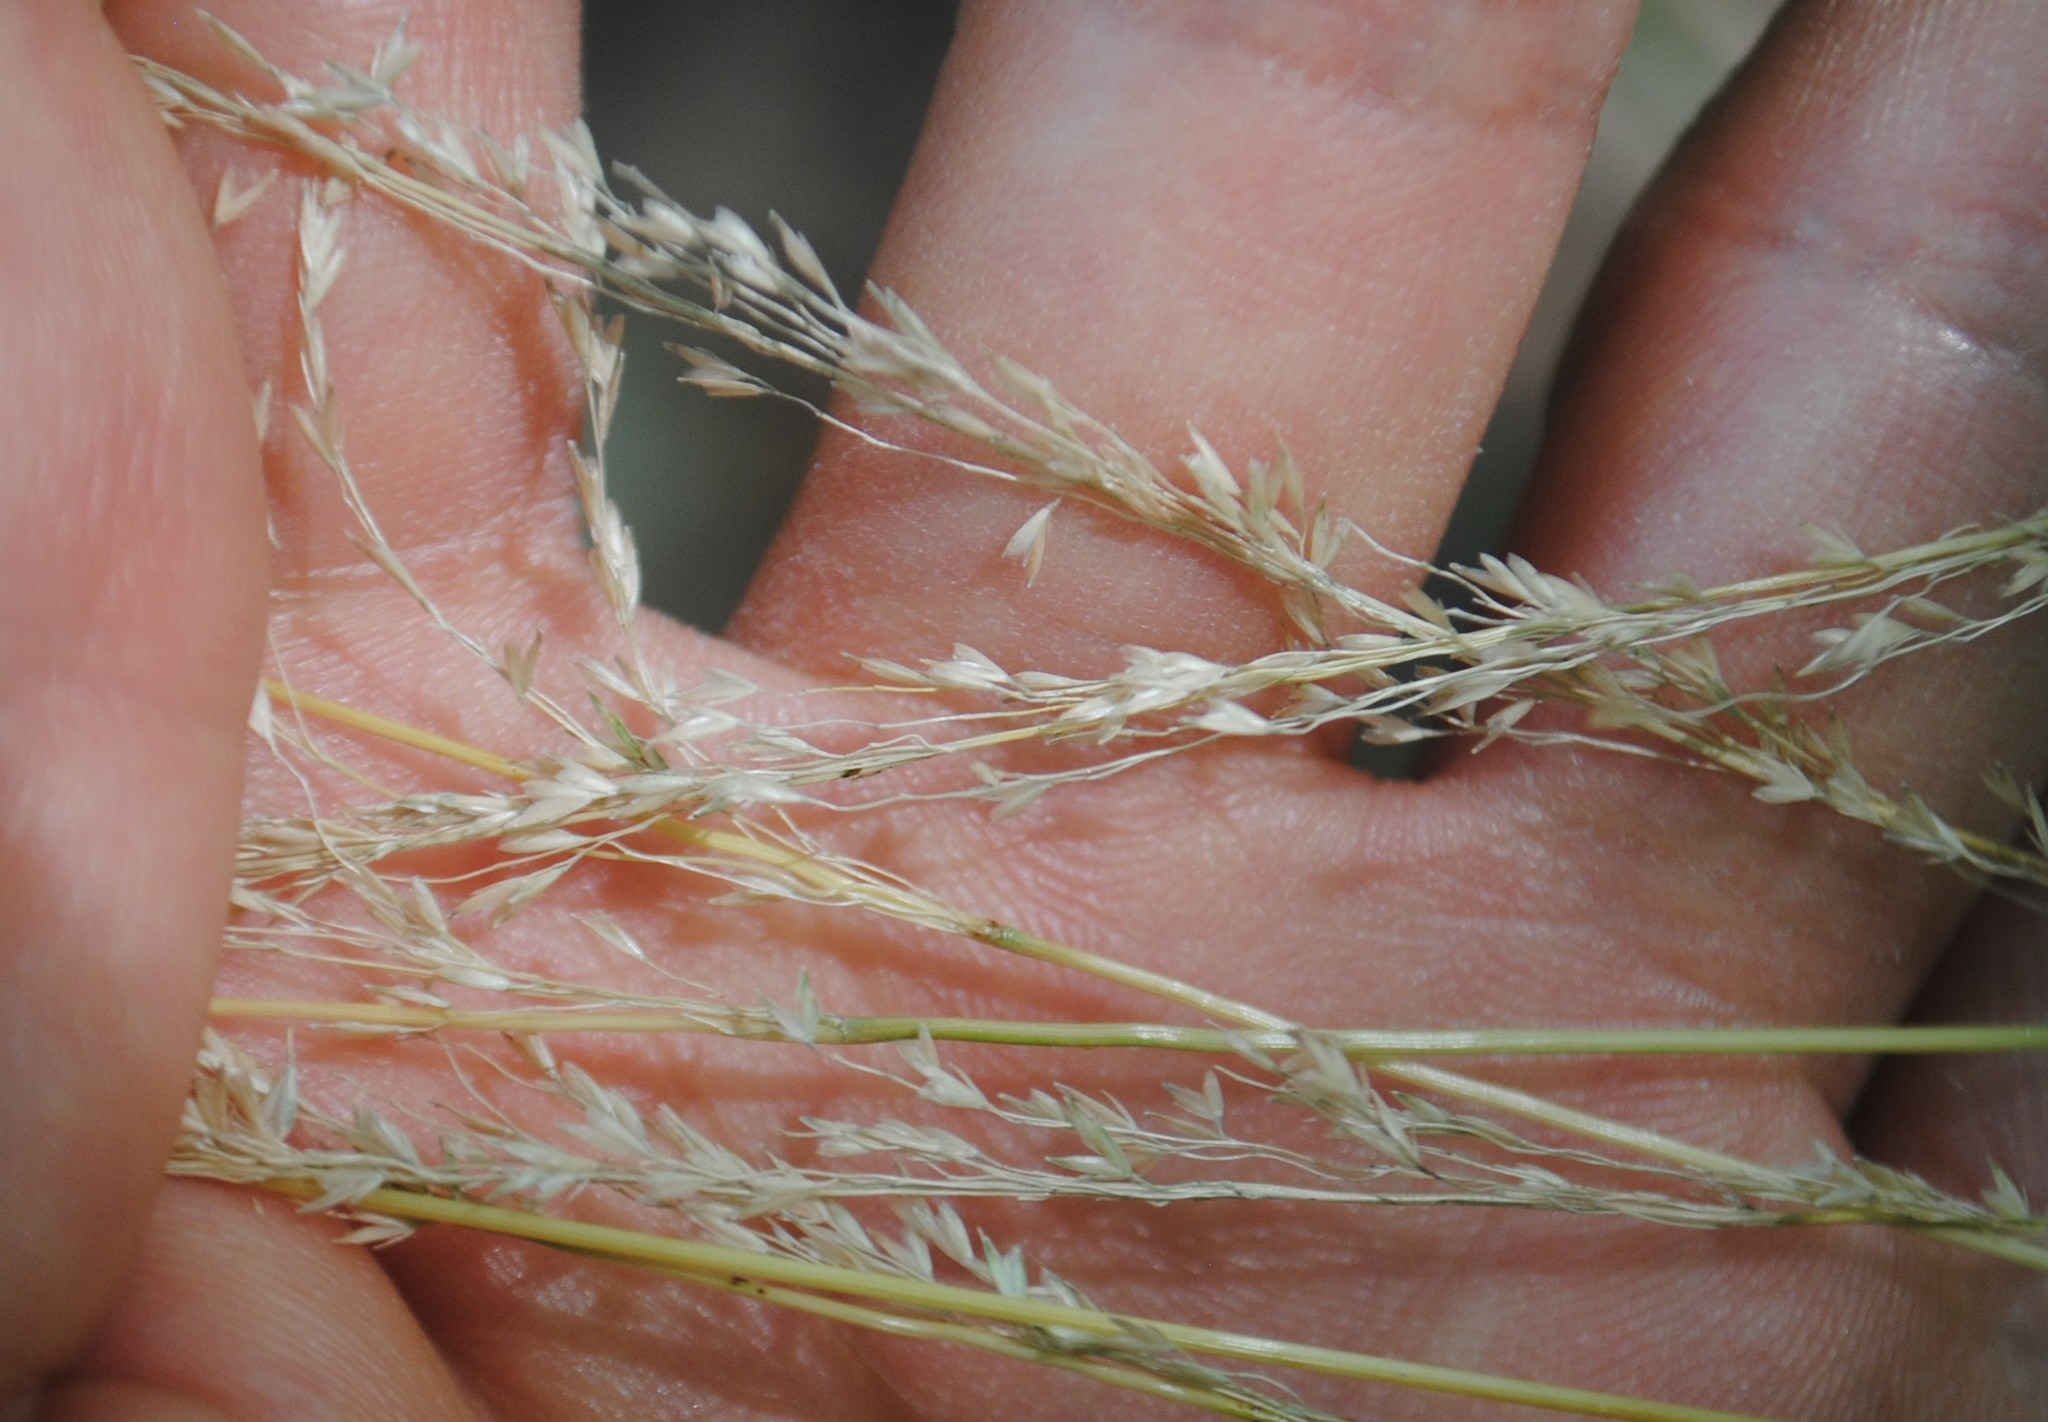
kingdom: Plantae
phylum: Tracheophyta
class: Liliopsida
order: Poales
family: Poaceae
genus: Sphenopholis
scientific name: Sphenopholis intermedia
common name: Intermediate eaton's grass
